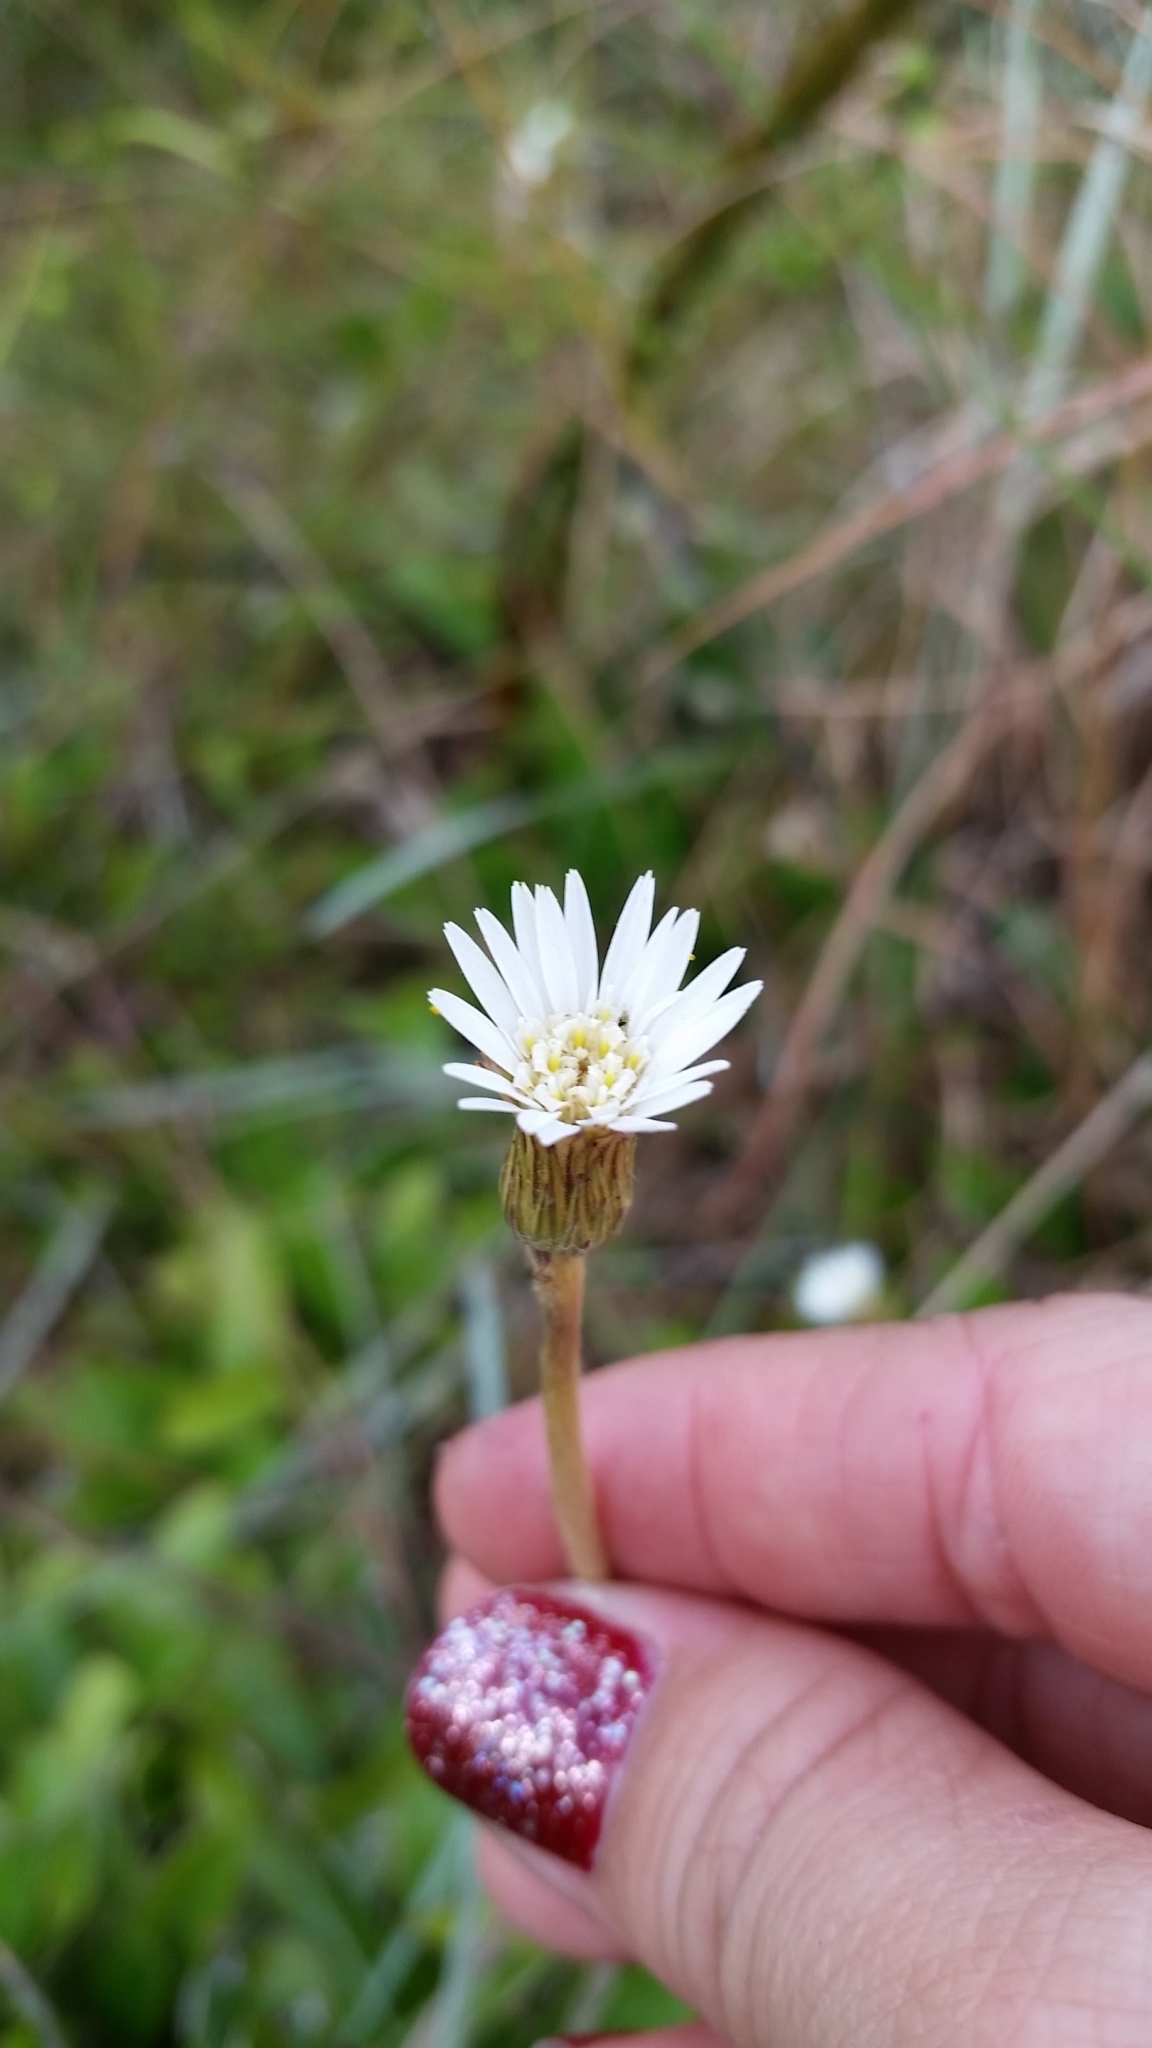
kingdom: Plantae
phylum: Tracheophyta
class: Magnoliopsida
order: Asterales
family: Asteraceae
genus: Chaptalia
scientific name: Chaptalia tomentosa
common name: Woolly sunbonnet
